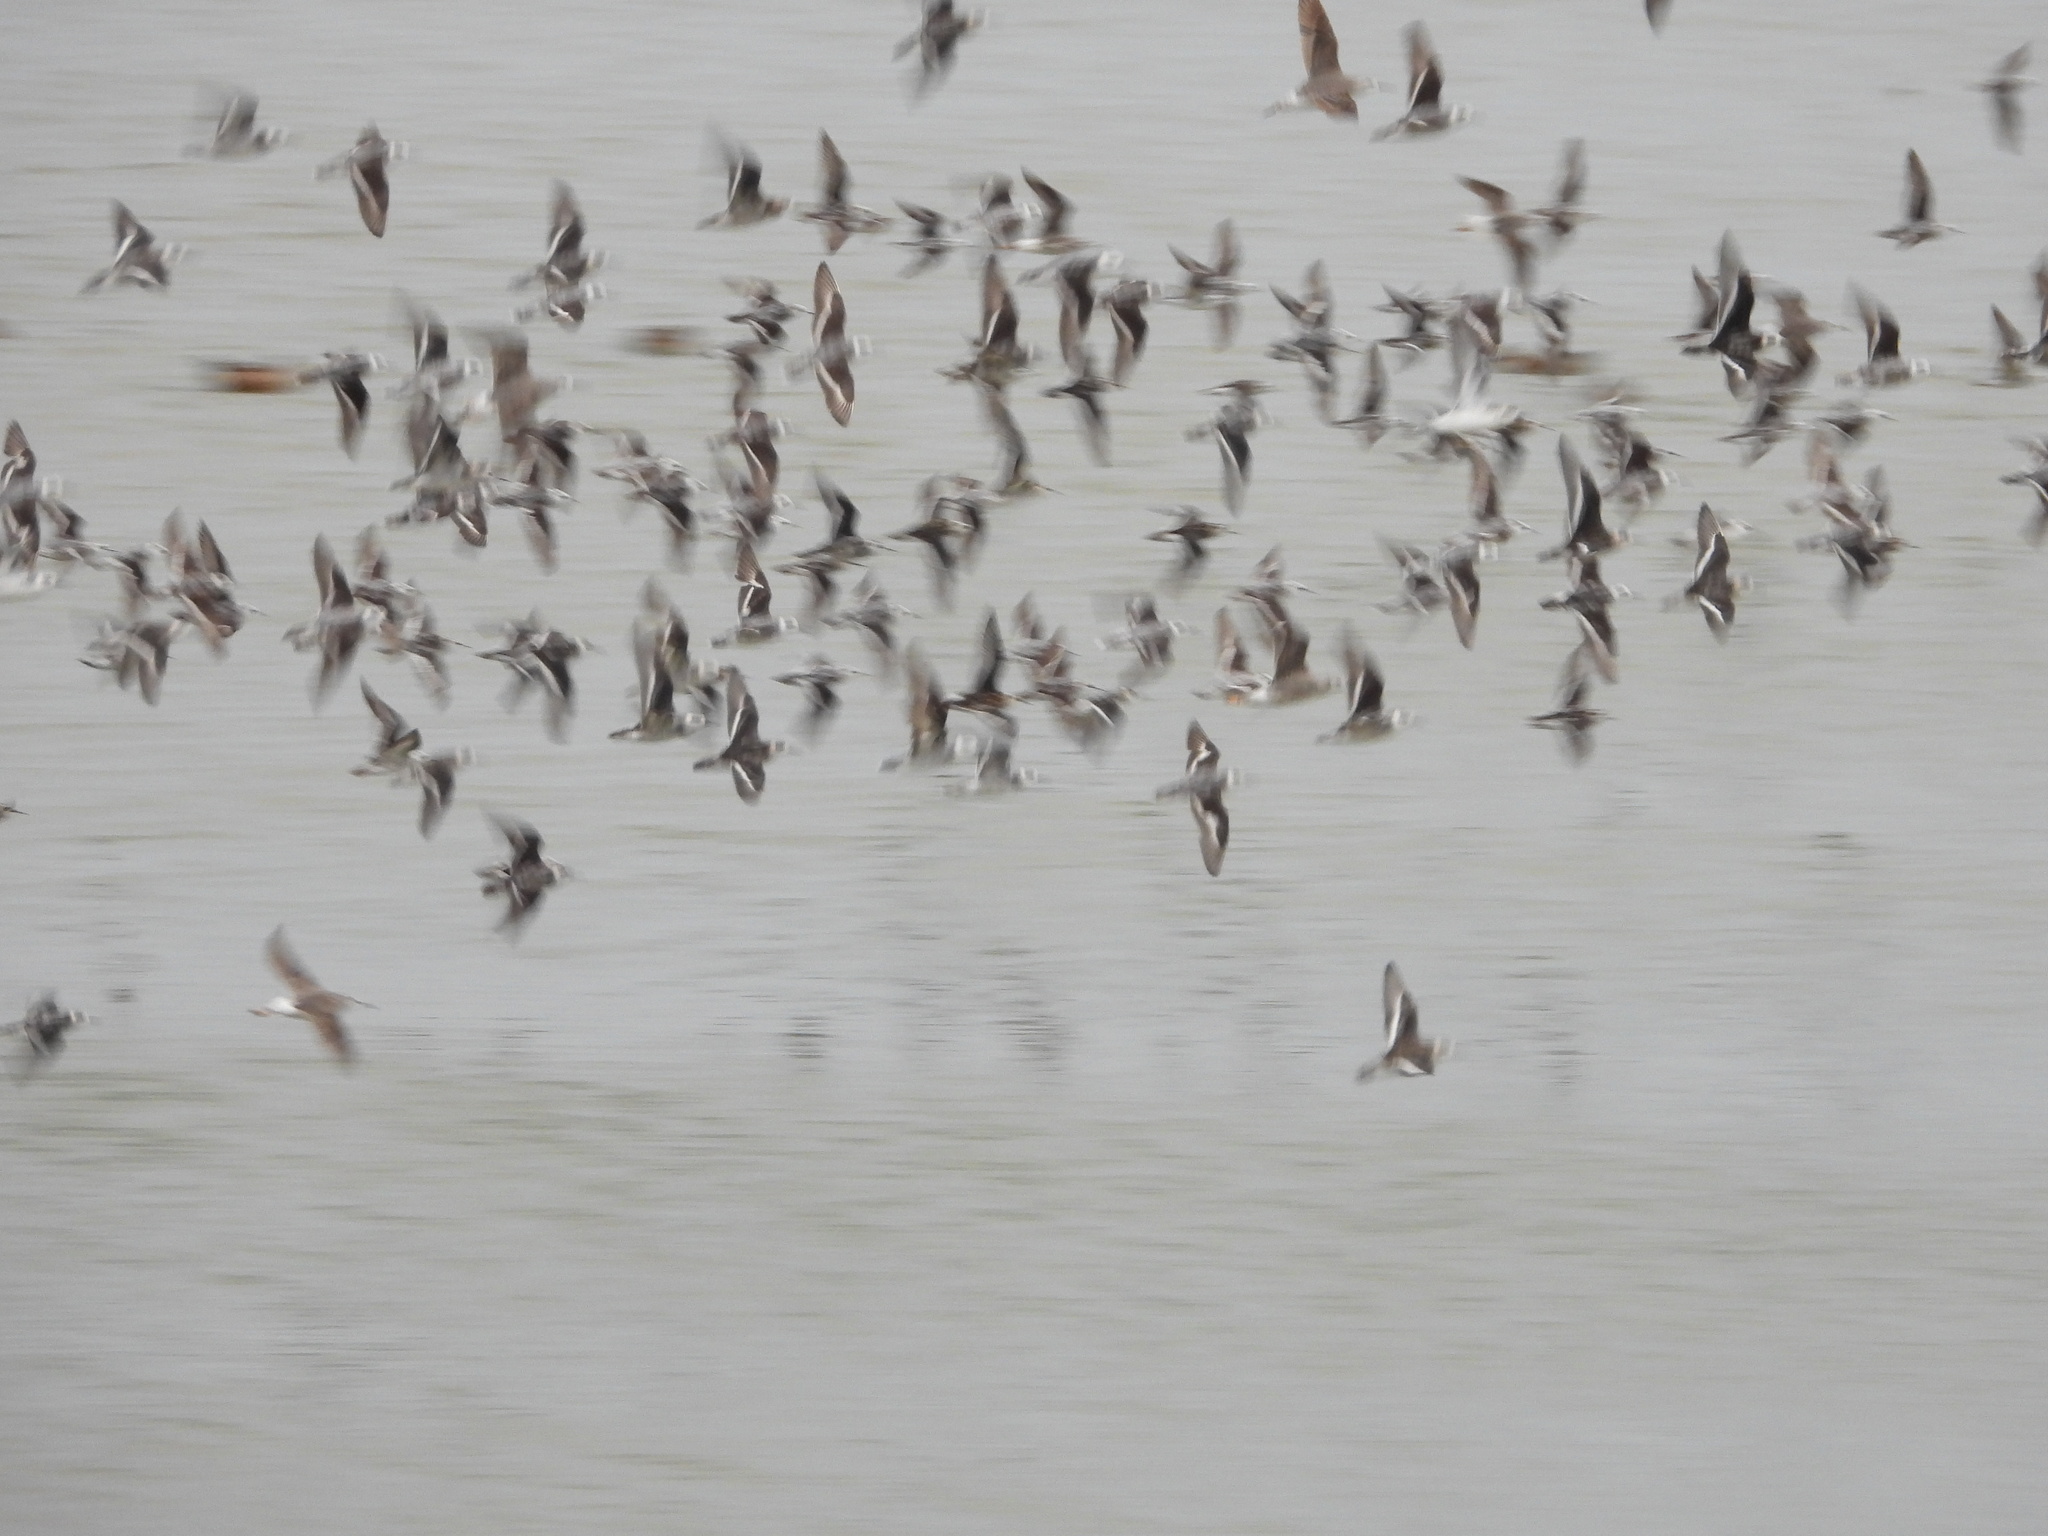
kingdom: Animalia
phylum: Chordata
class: Aves
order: Charadriiformes
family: Scolopacidae
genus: Phalaropus
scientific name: Phalaropus lobatus
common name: Red-necked phalarope
